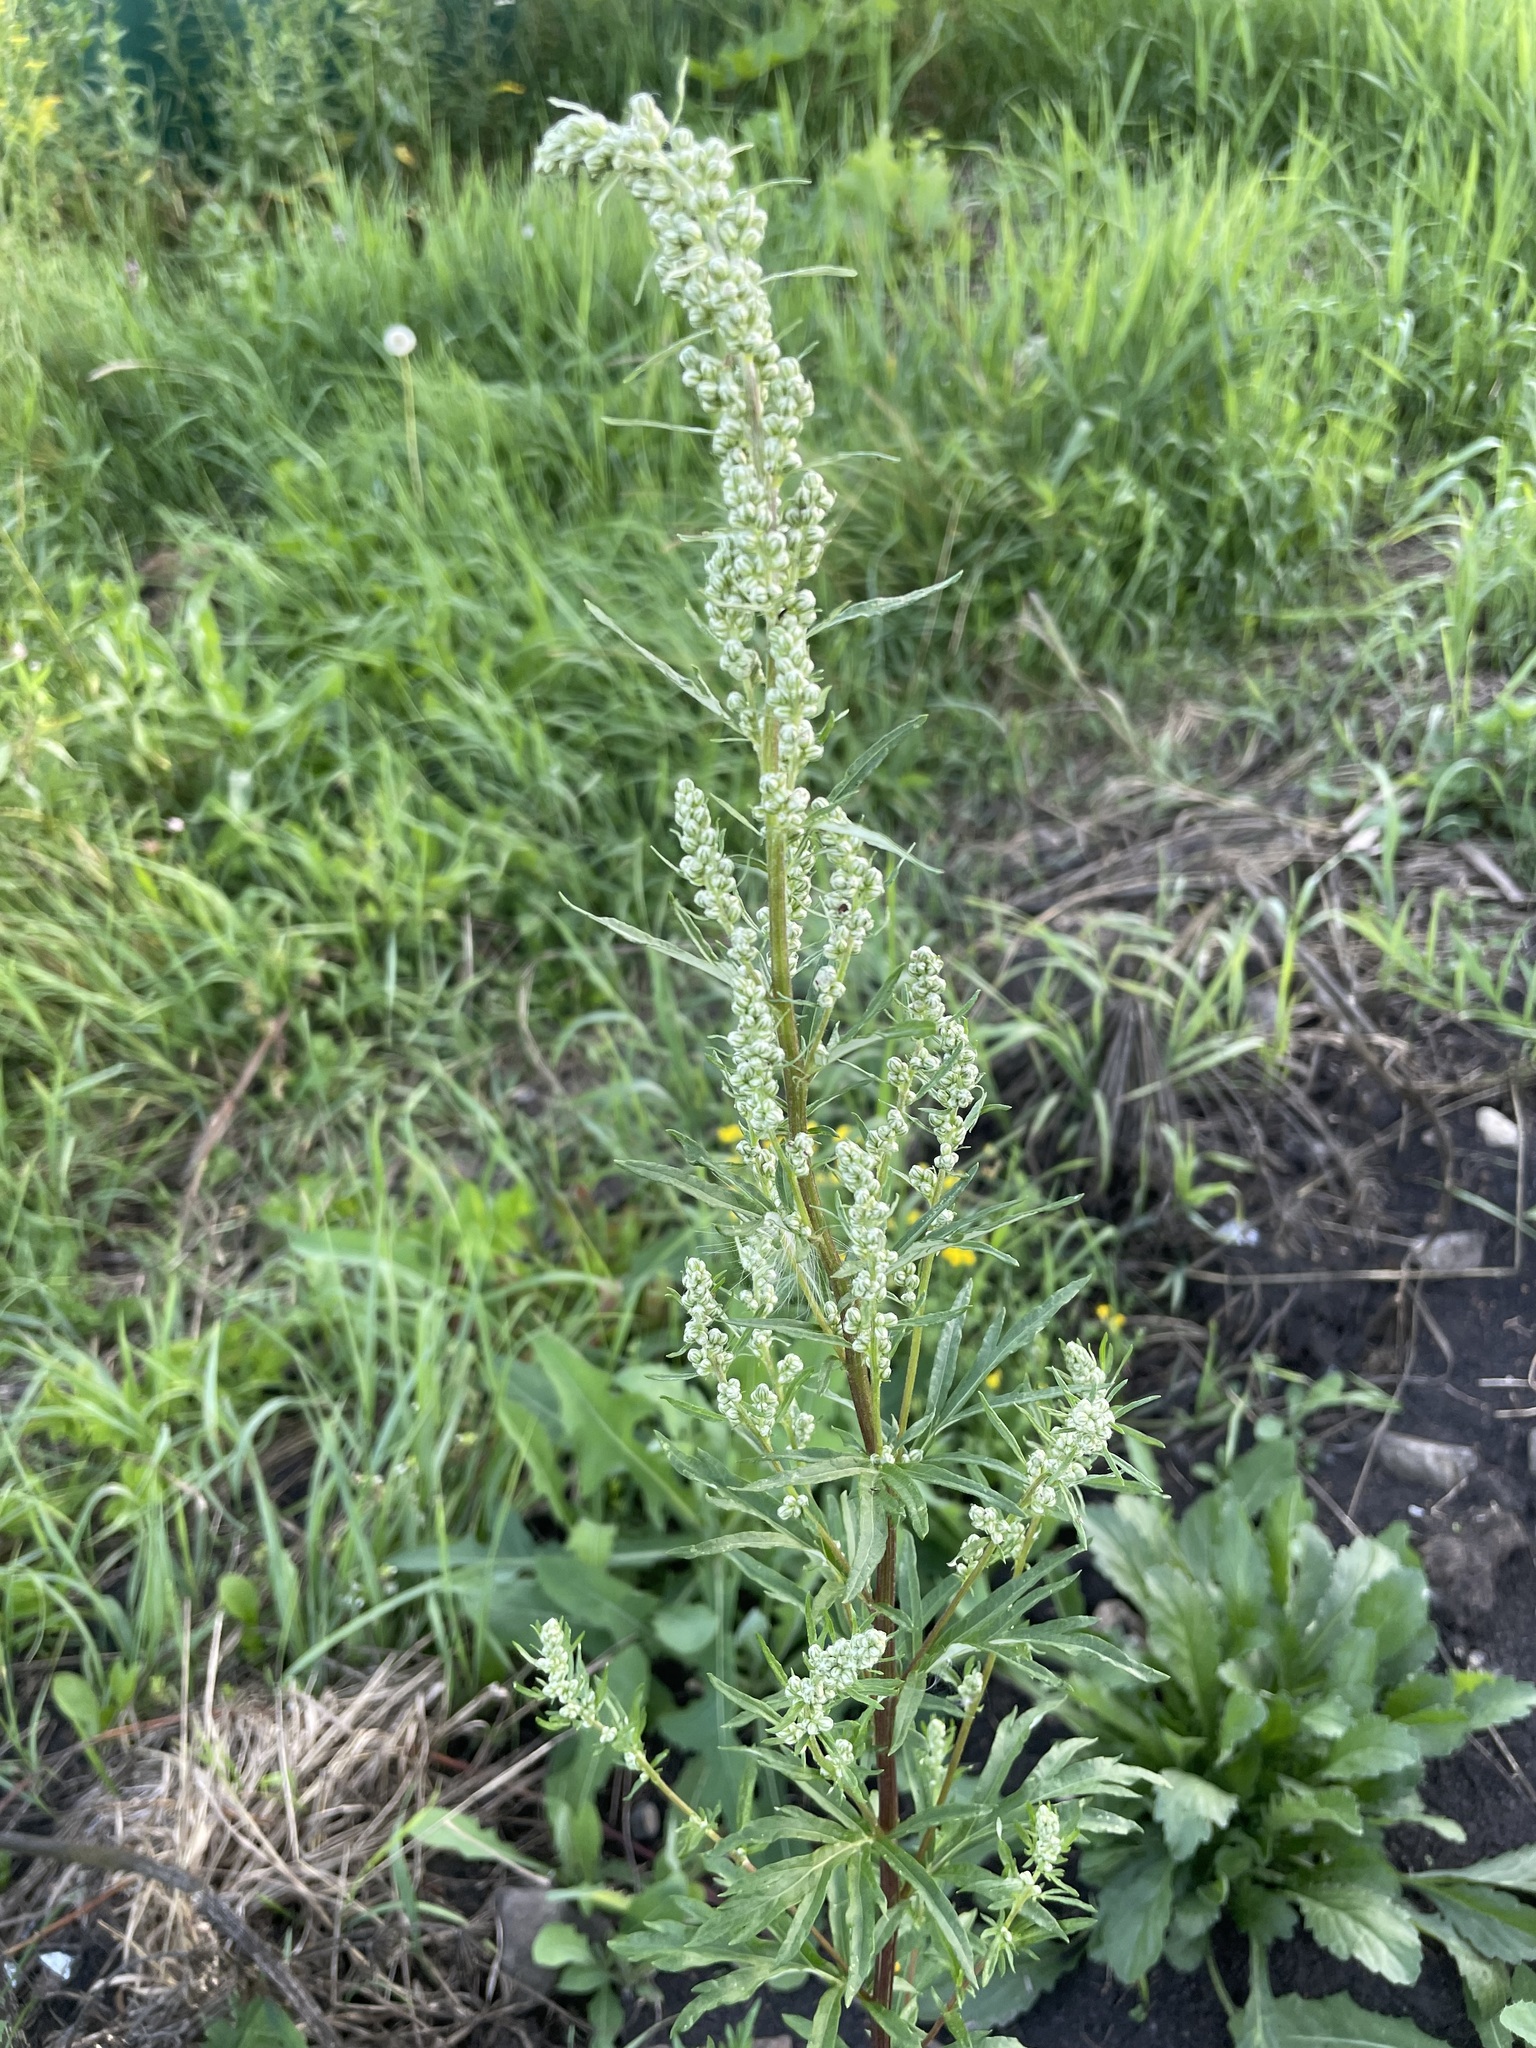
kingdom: Plantae
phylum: Tracheophyta
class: Magnoliopsida
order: Asterales
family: Asteraceae
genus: Artemisia
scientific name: Artemisia vulgaris
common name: Mugwort
